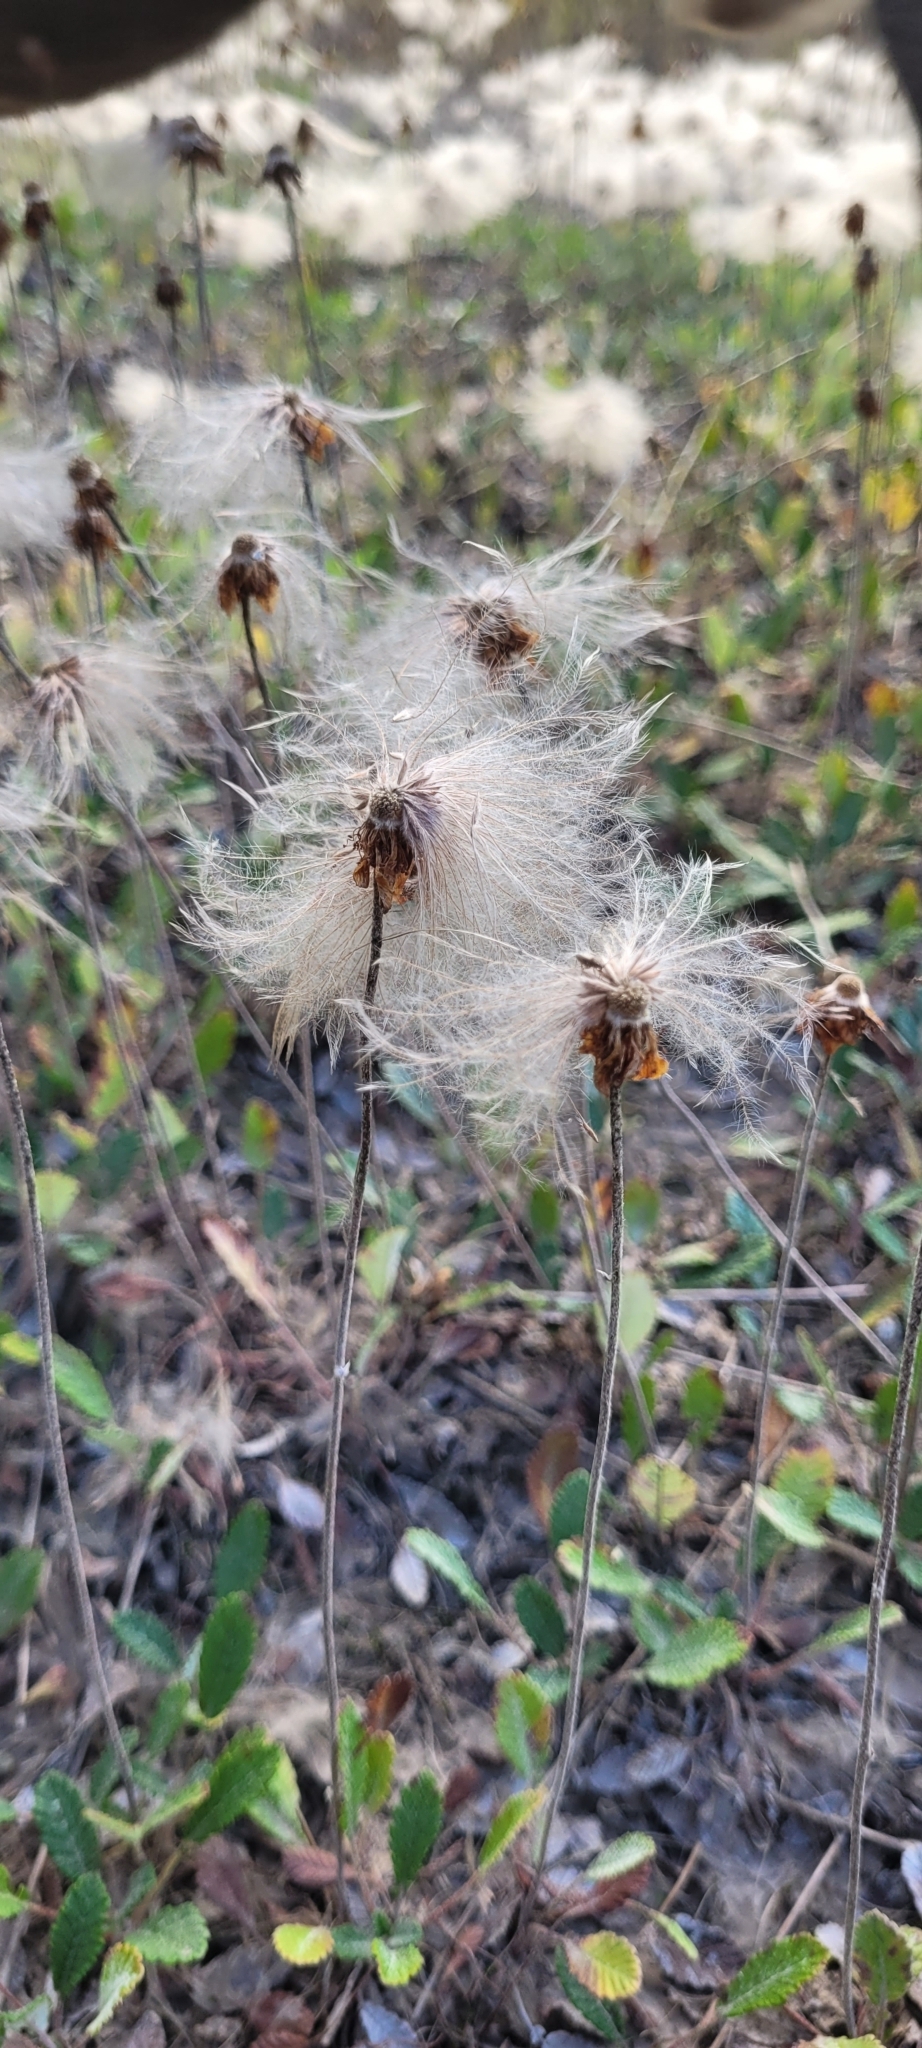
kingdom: Plantae
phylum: Tracheophyta
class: Magnoliopsida
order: Rosales
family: Rosaceae
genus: Dryas
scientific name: Dryas drummondii
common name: Drummond's dryad
